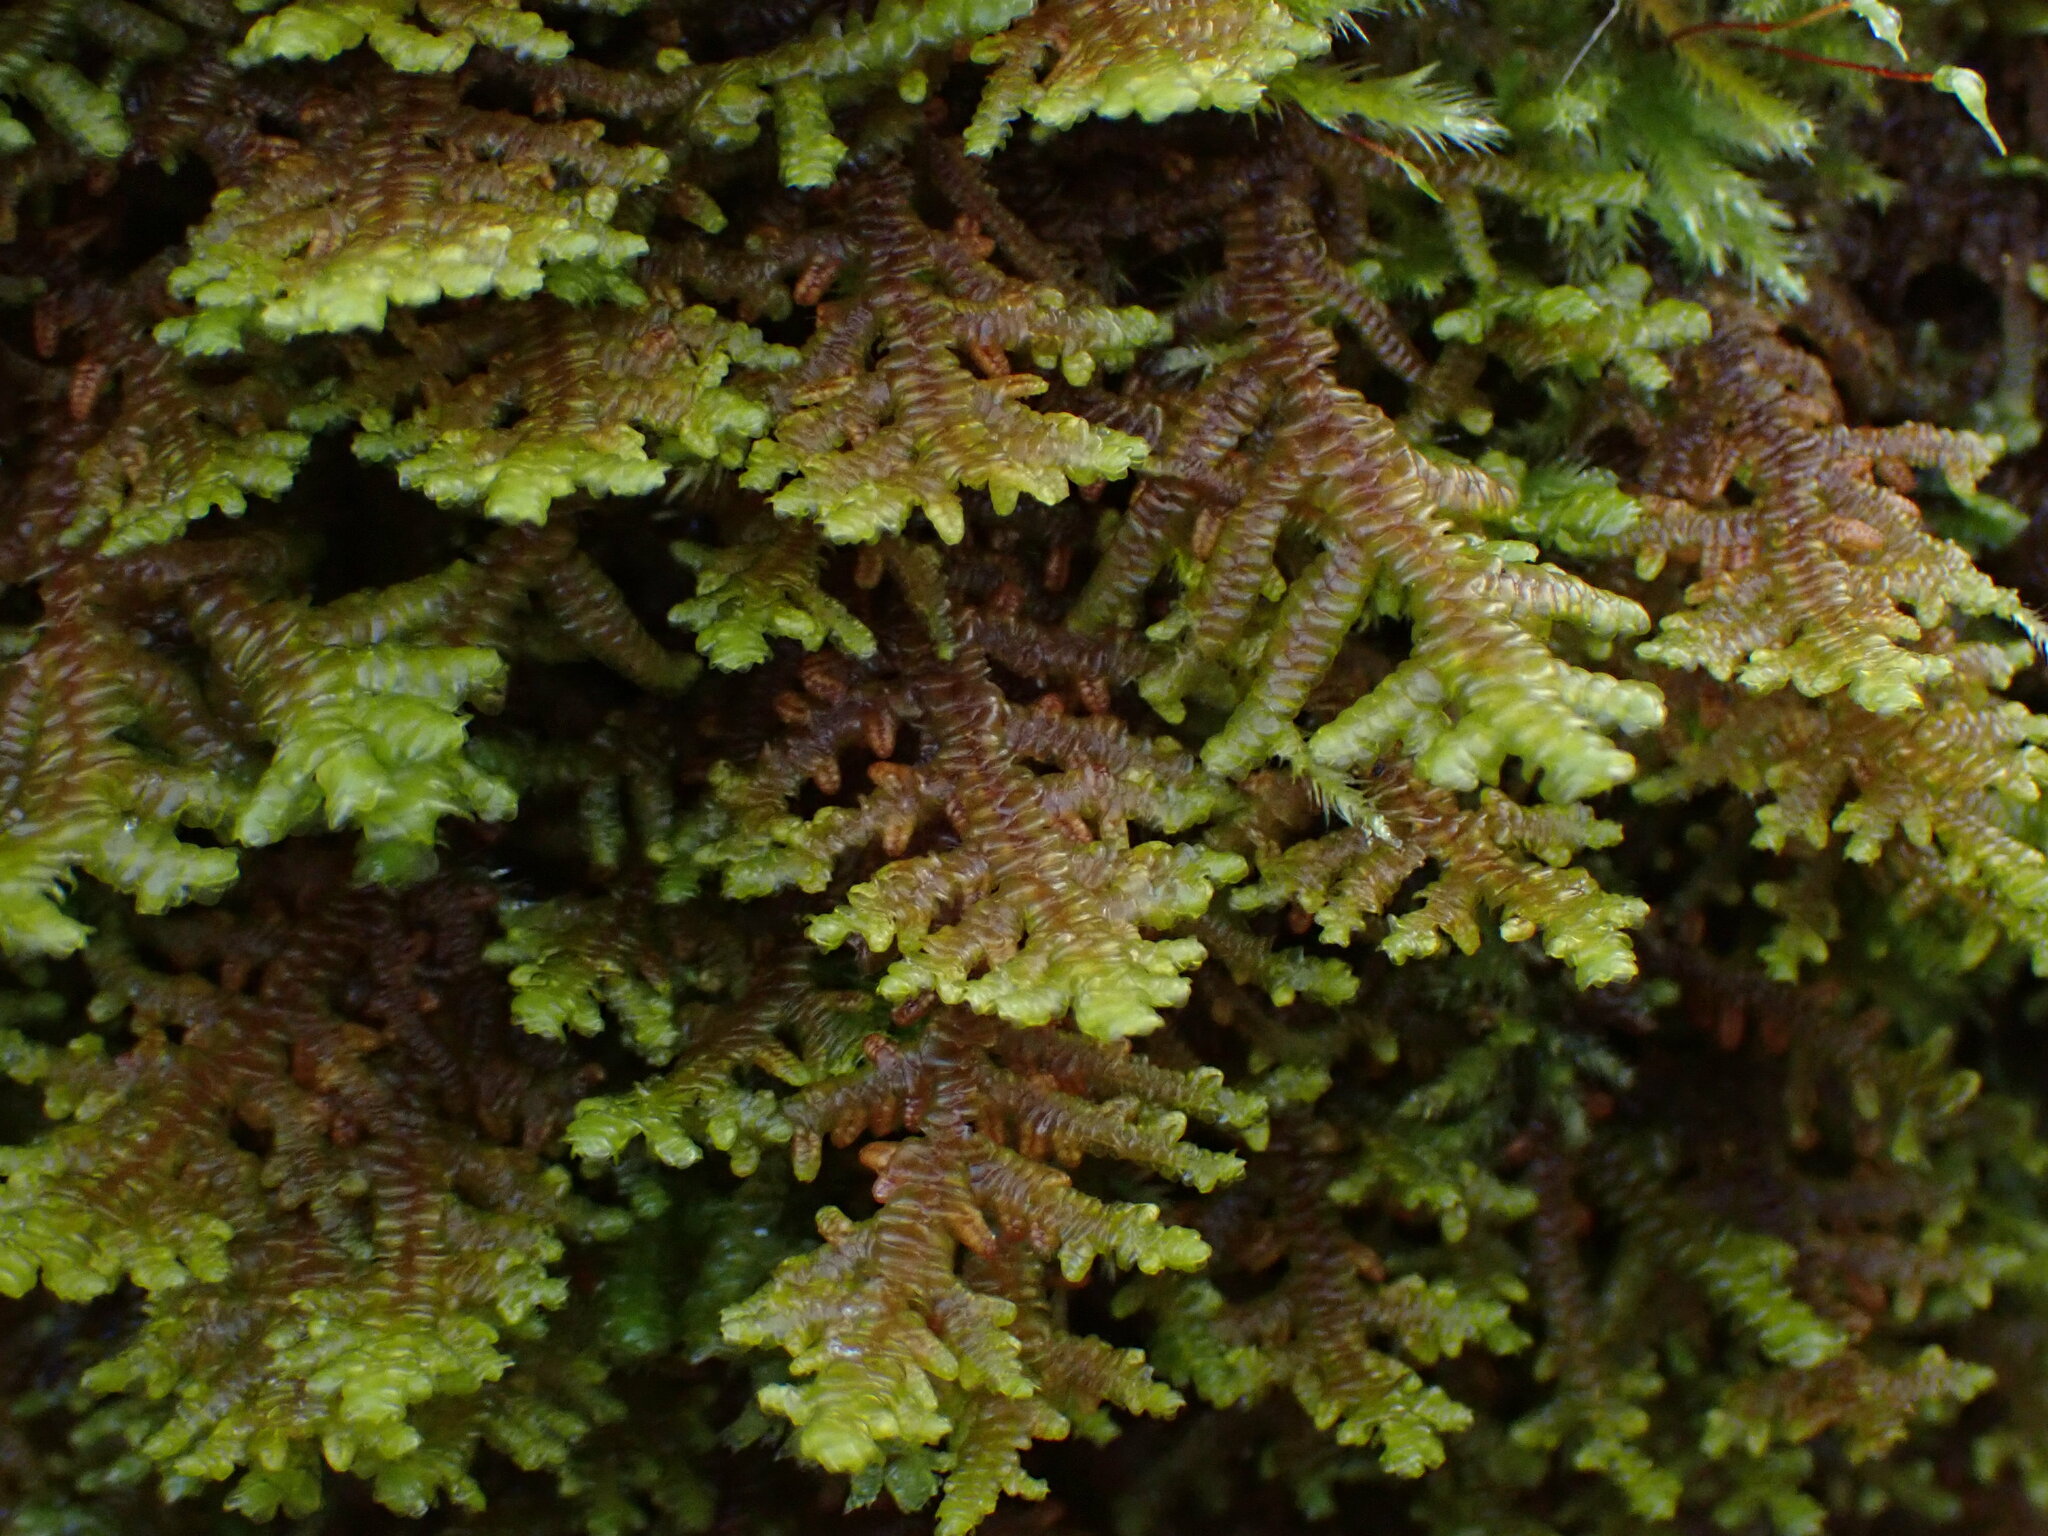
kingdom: Plantae
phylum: Marchantiophyta
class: Jungermanniopsida
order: Porellales
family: Porellaceae
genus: Porella
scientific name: Porella navicularis
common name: Tree ruffle liverwort
